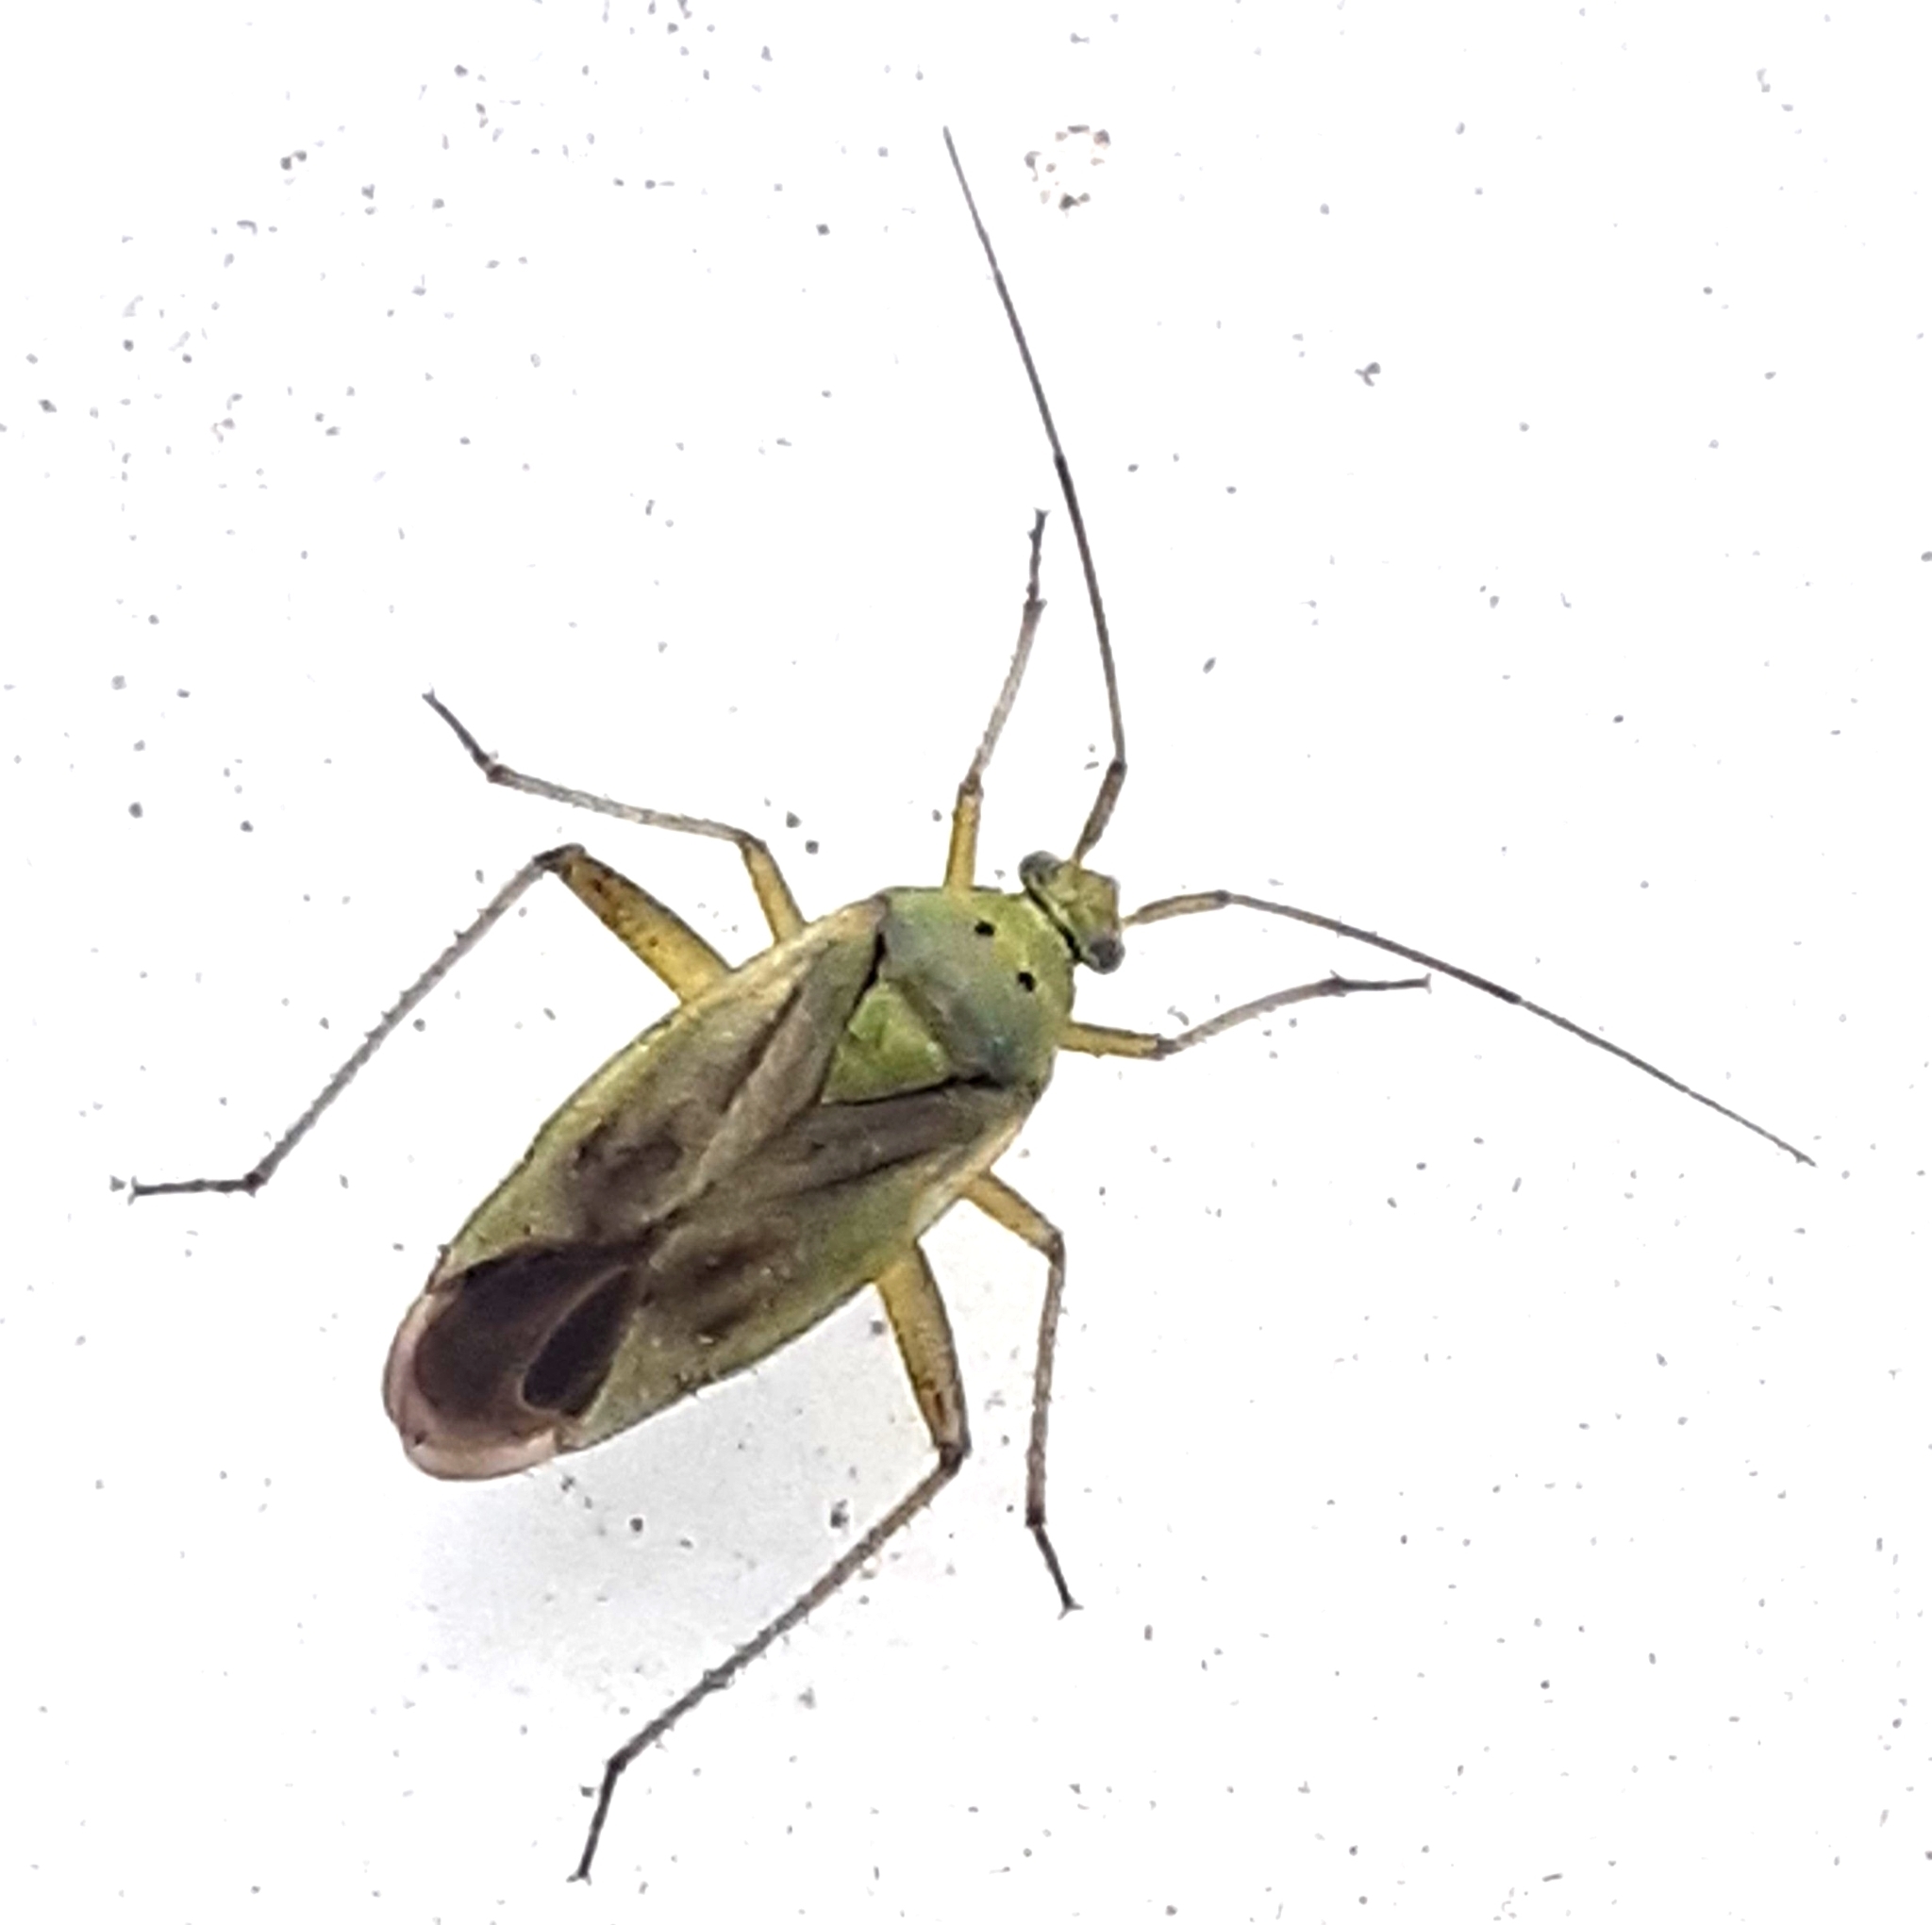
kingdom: Animalia
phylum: Arthropoda
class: Insecta
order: Hemiptera
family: Miridae
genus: Closterotomus
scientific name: Closterotomus norvegicus
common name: Plant bug
